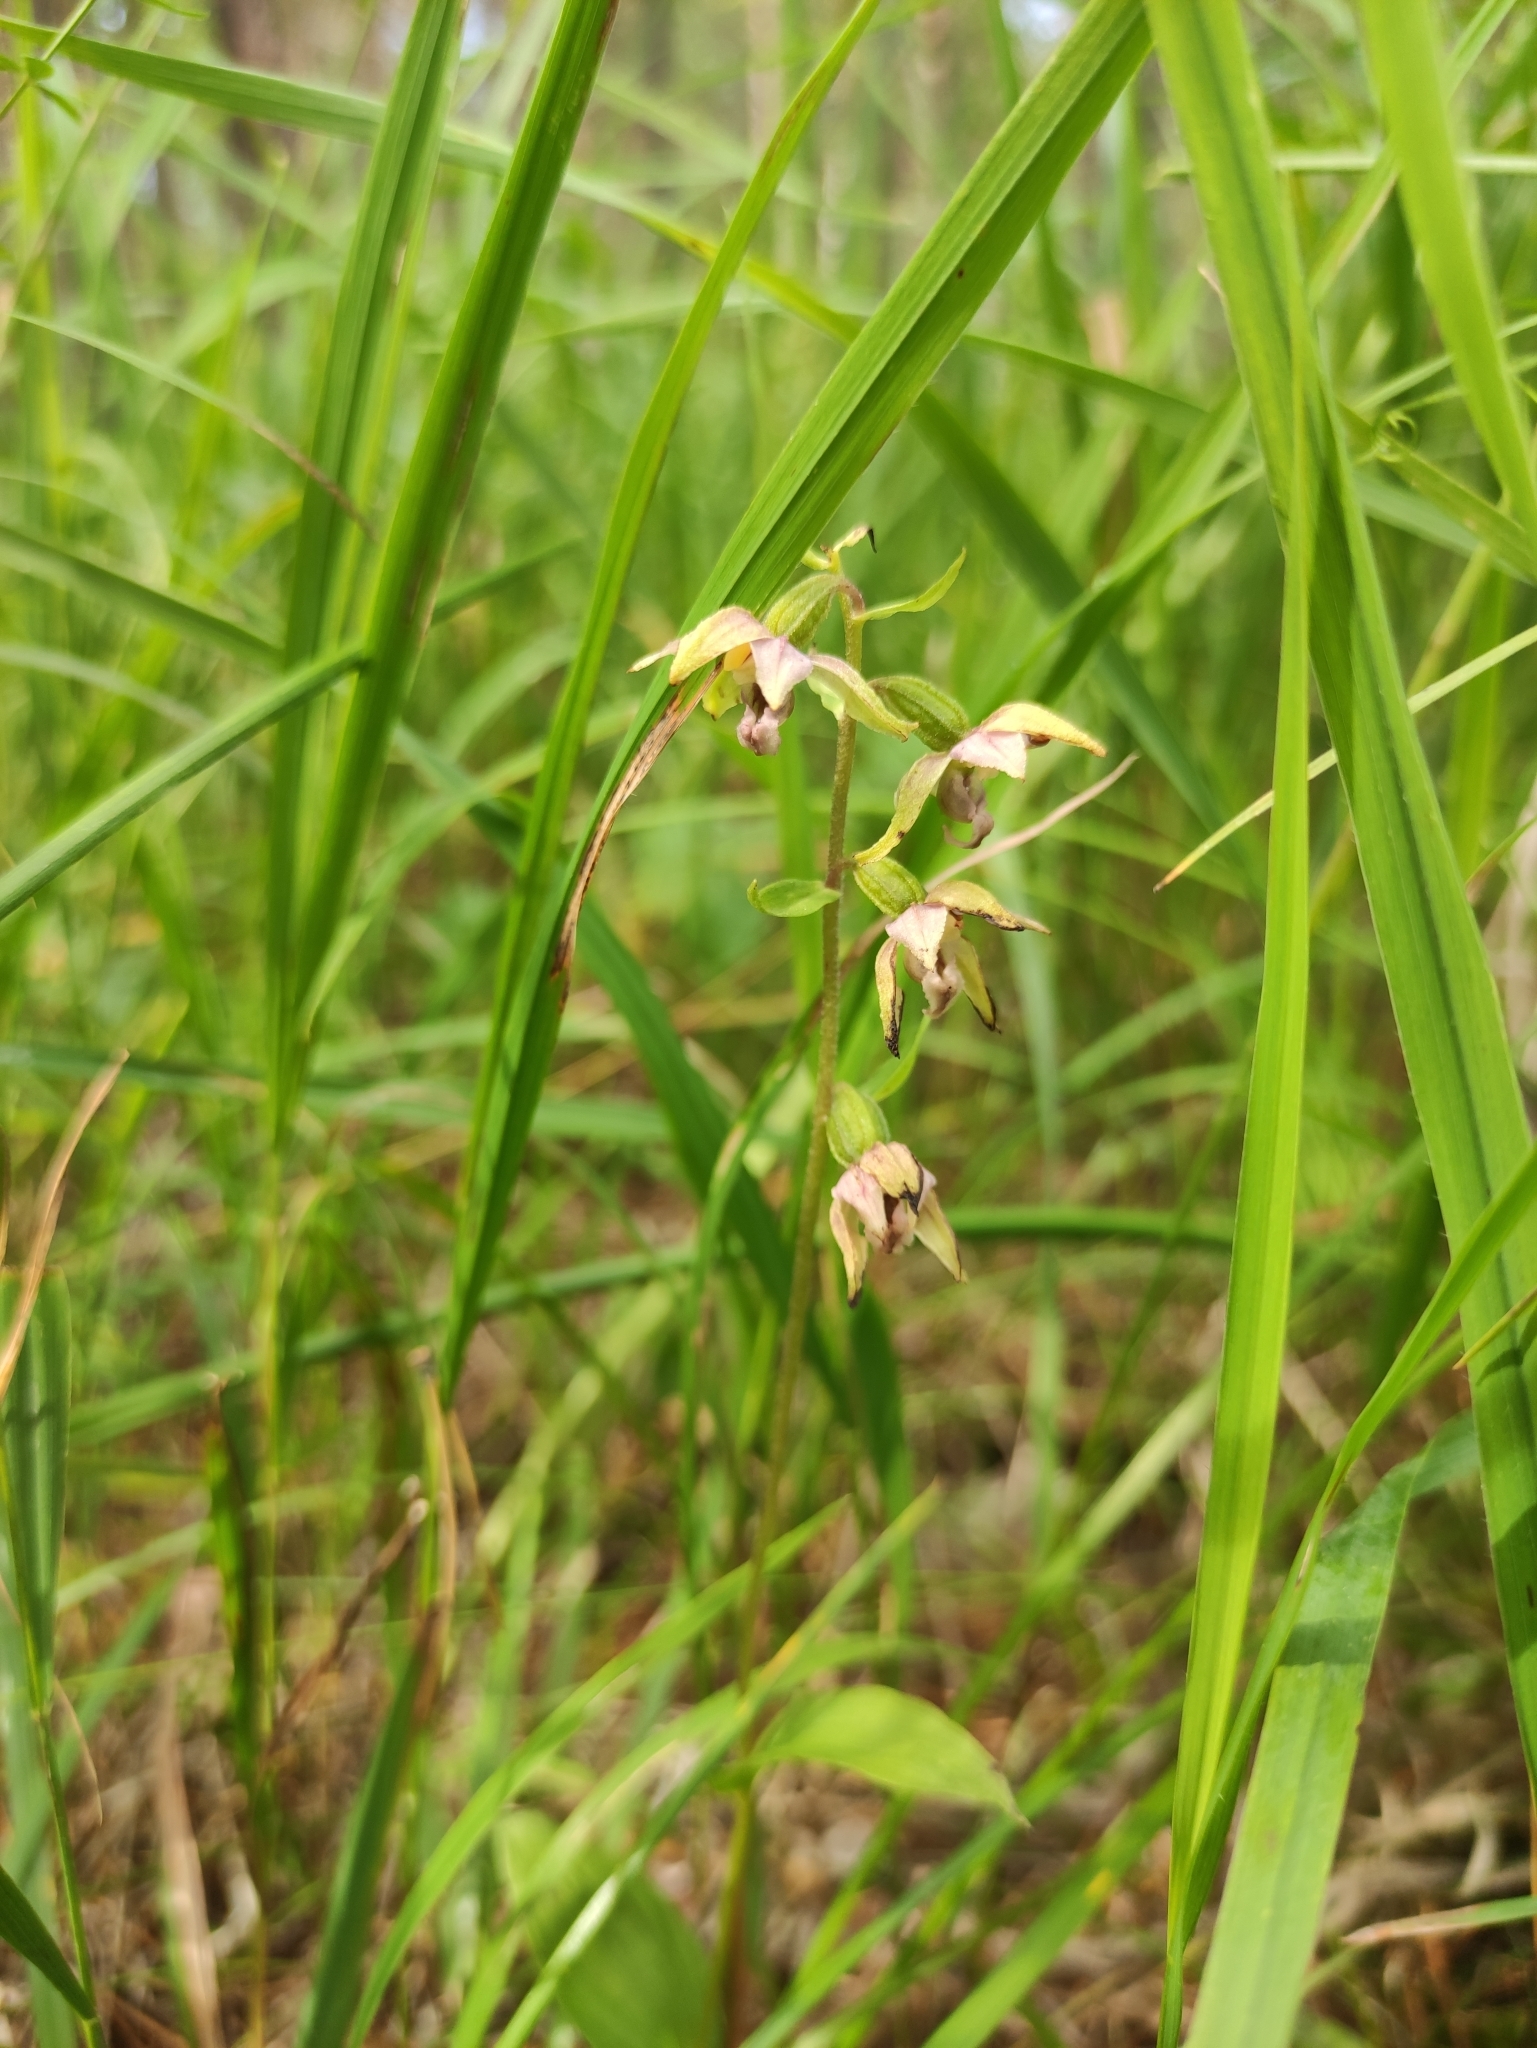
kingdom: Plantae
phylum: Tracheophyta
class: Liliopsida
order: Asparagales
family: Orchidaceae
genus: Epipactis
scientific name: Epipactis helleborine
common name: Broad-leaved helleborine
